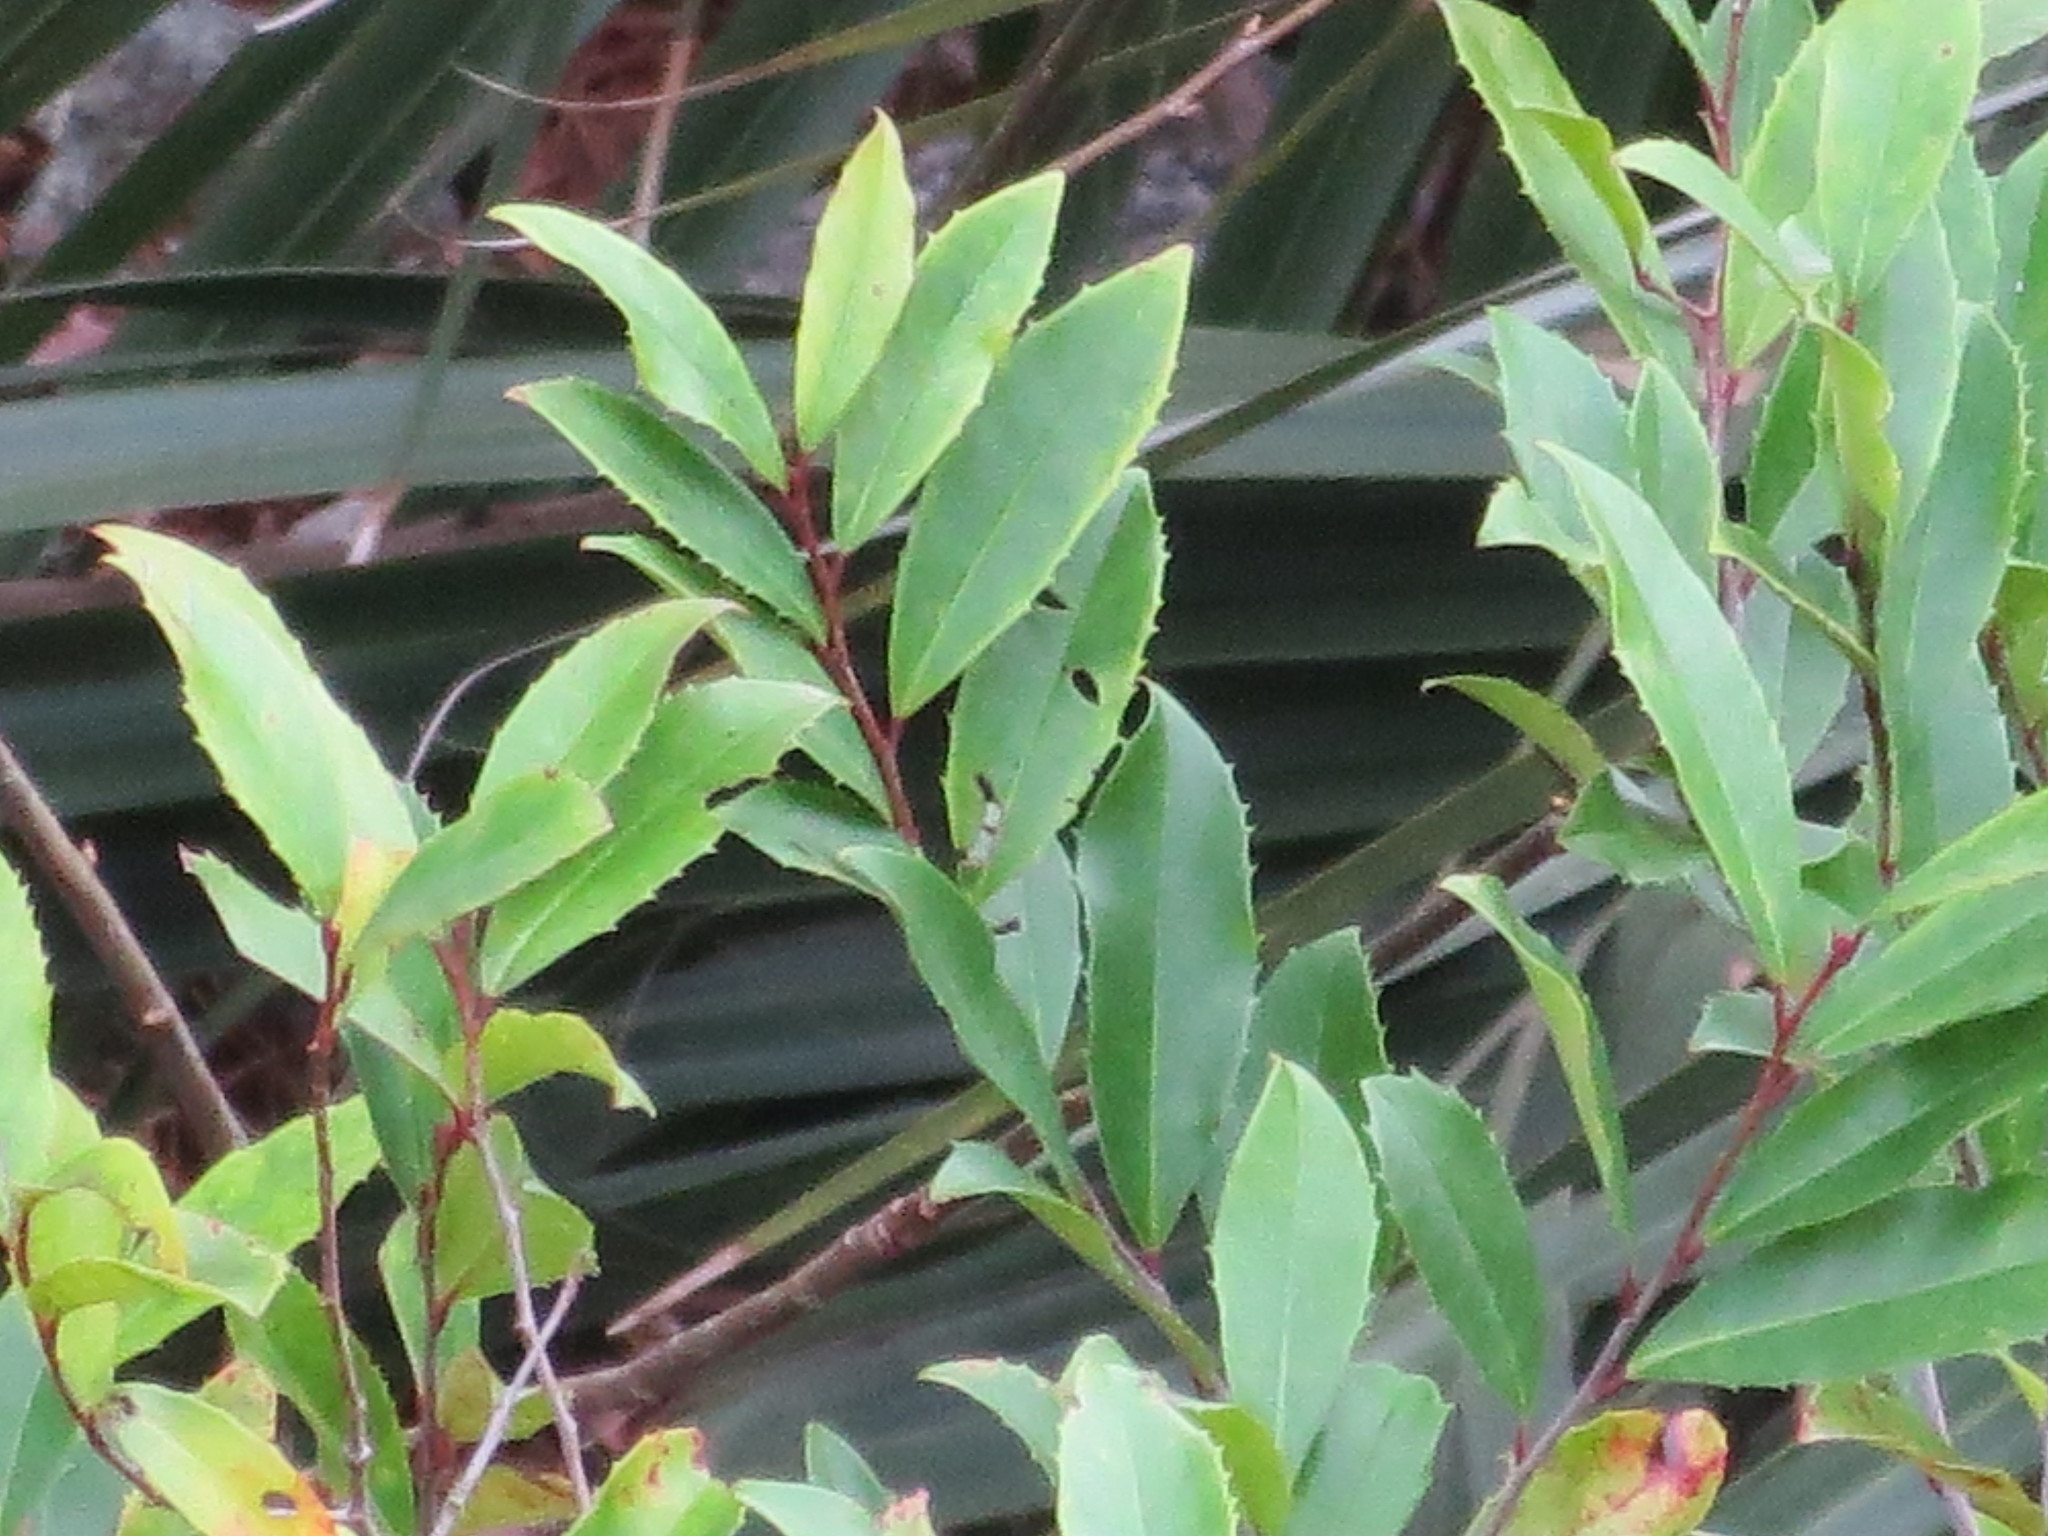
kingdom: Plantae
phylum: Tracheophyta
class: Magnoliopsida
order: Rosales
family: Rosaceae
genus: Prunus
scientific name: Prunus caroliniana
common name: Carolina laurel cherry
